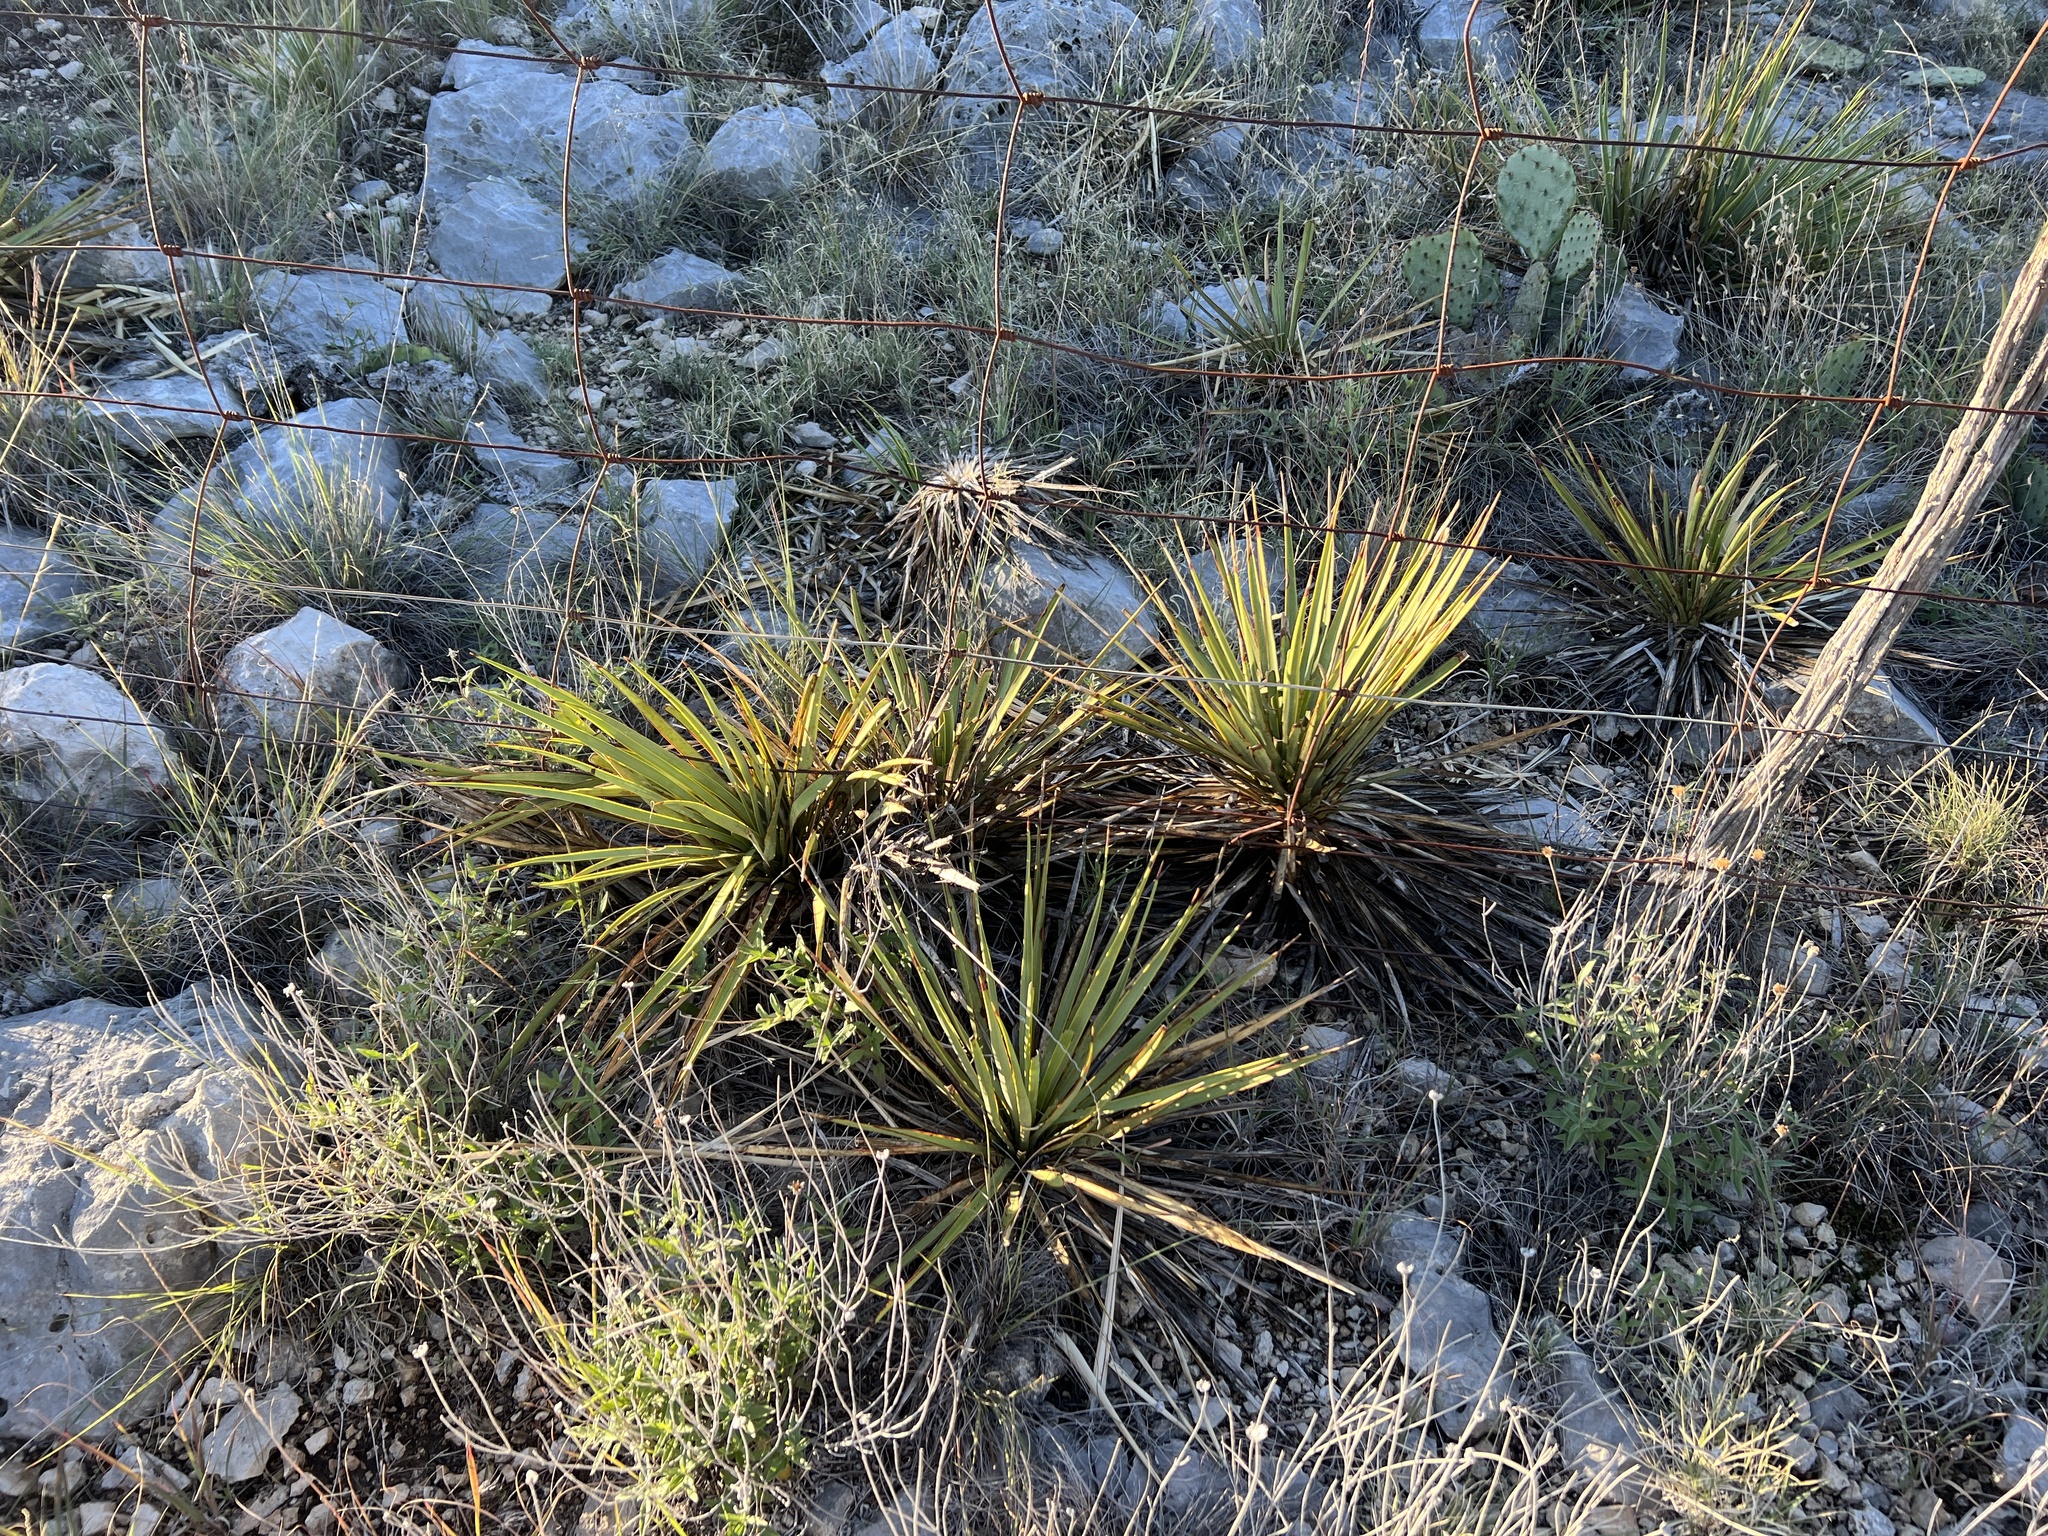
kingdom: Plantae
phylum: Tracheophyta
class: Liliopsida
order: Asparagales
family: Asparagaceae
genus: Yucca
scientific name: Yucca reverchonii
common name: San angelo yucca
